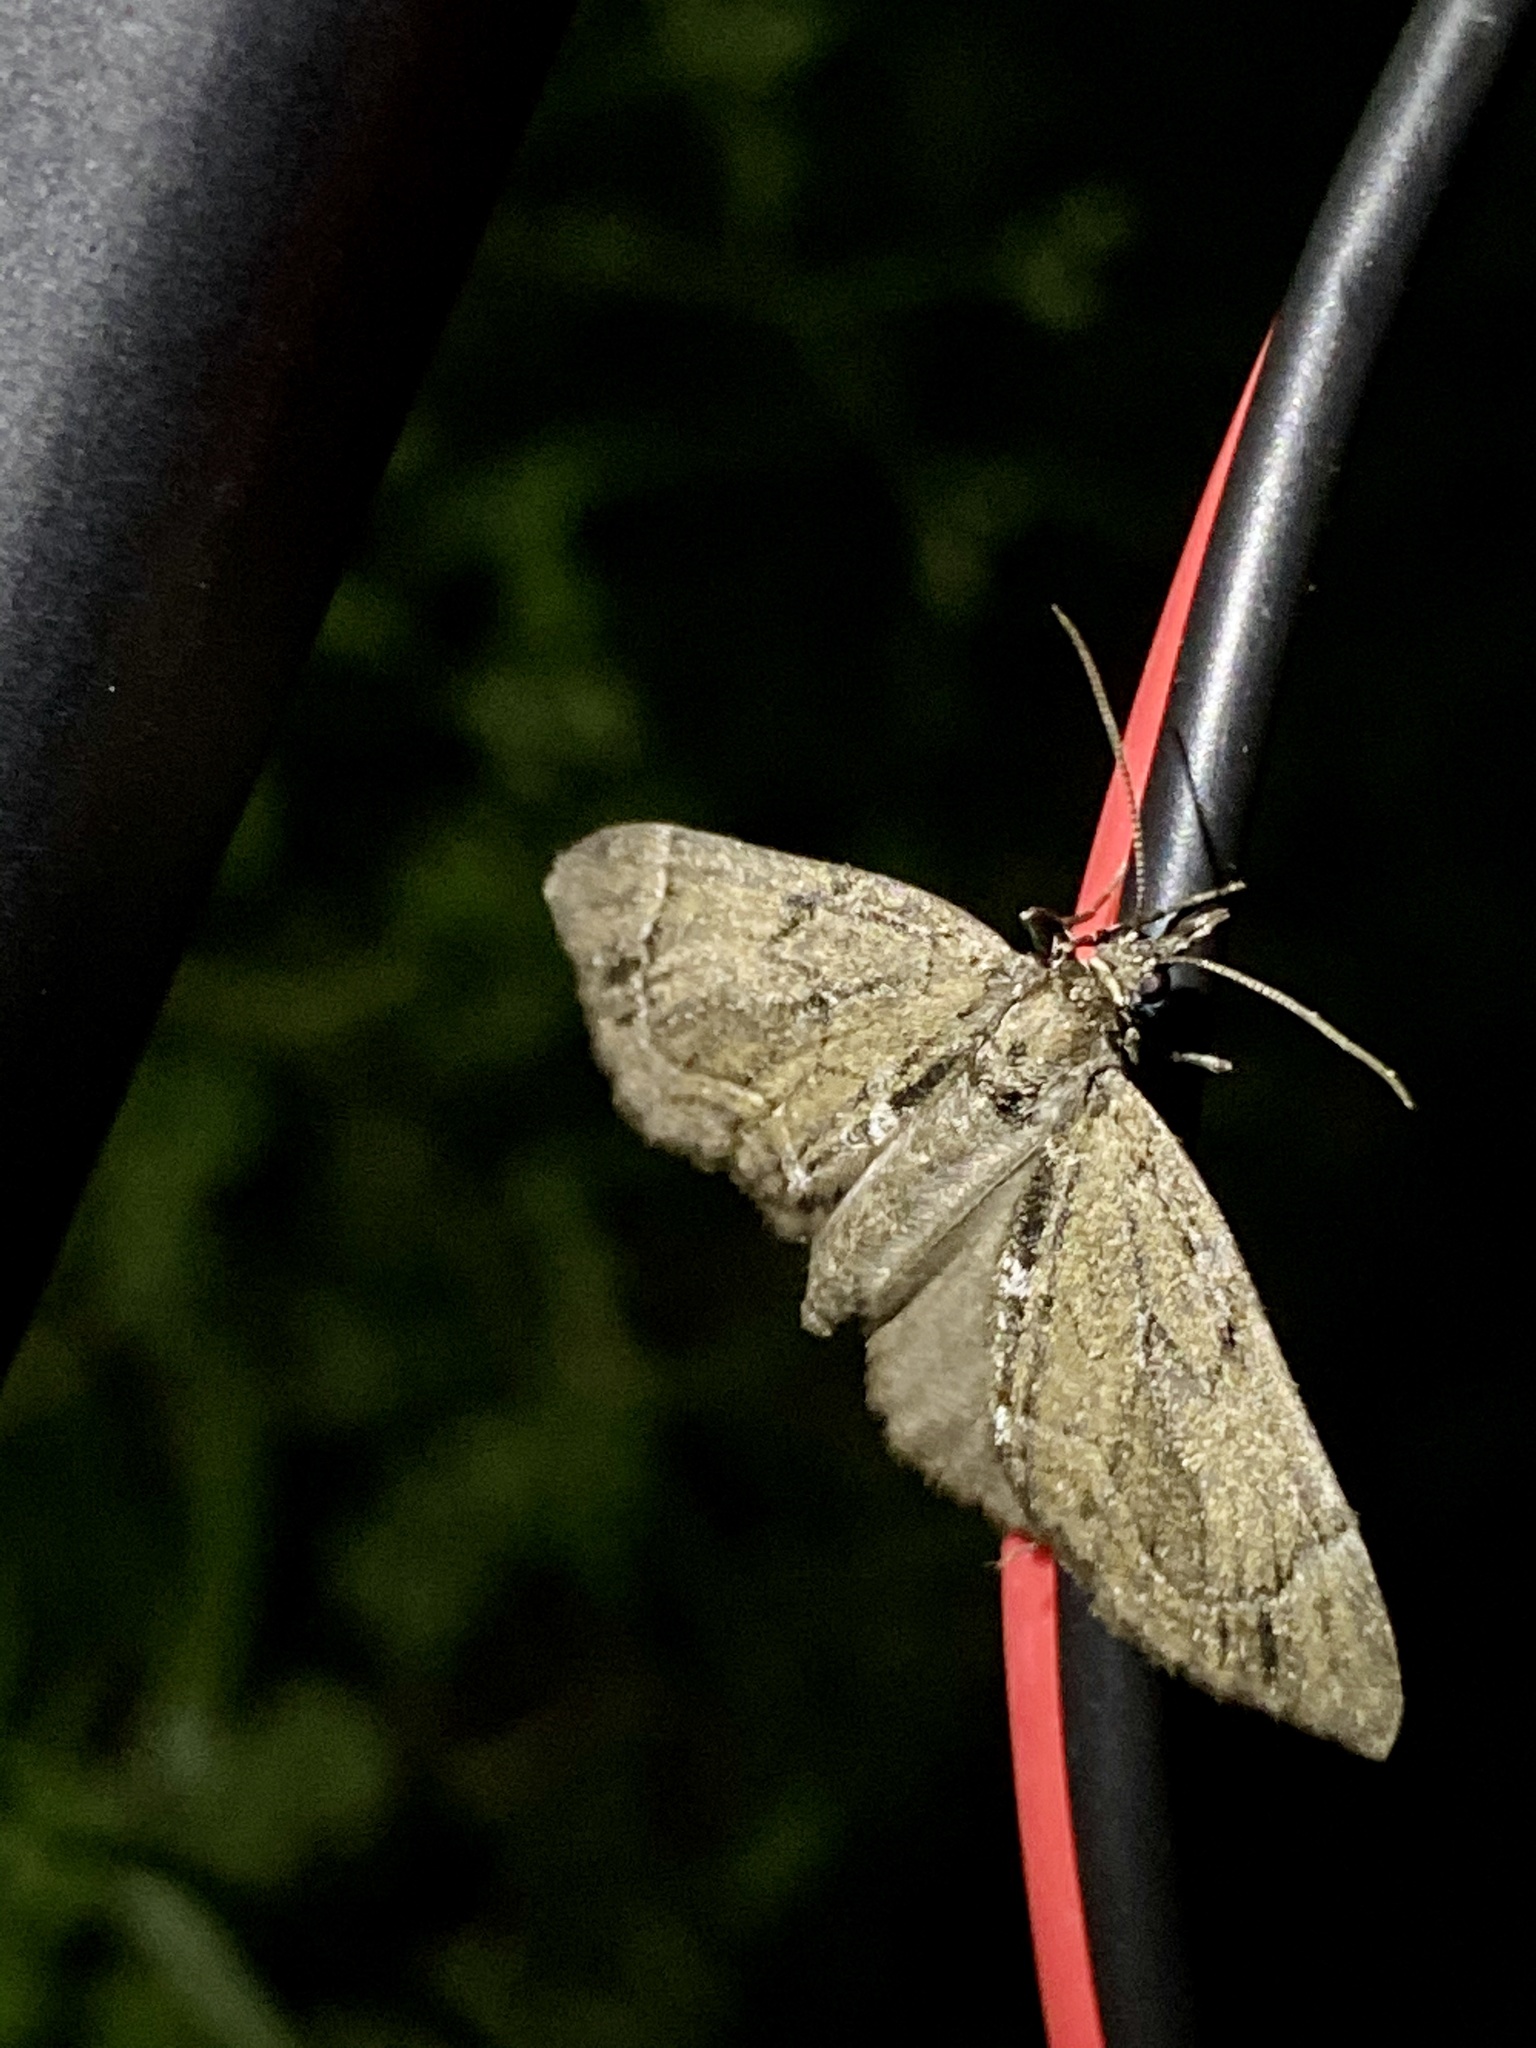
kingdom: Animalia
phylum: Arthropoda
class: Insecta
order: Lepidoptera
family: Geometridae
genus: Lobophorodes
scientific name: Lobophorodes
